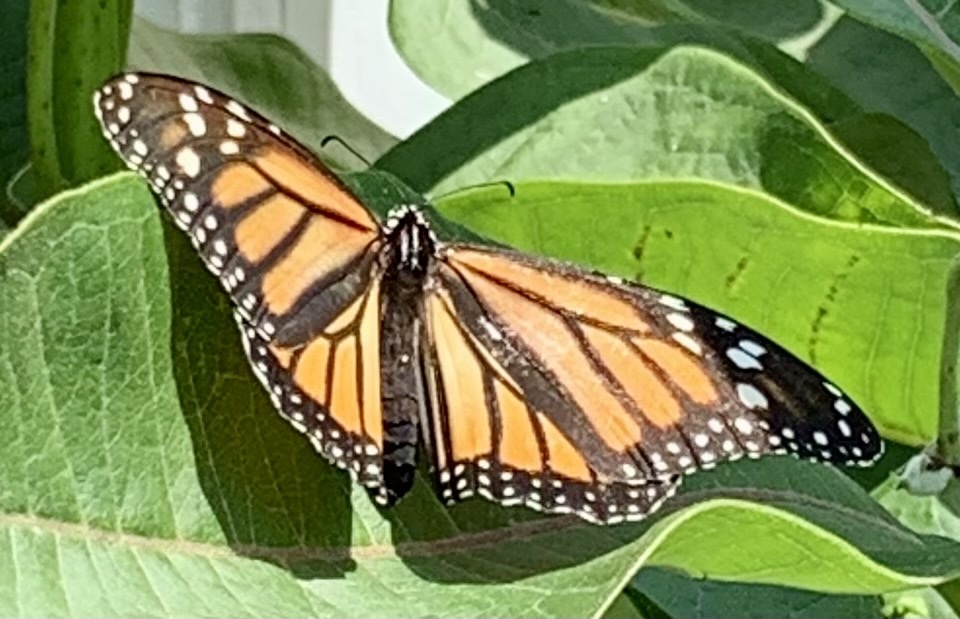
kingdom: Animalia
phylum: Arthropoda
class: Insecta
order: Lepidoptera
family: Nymphalidae
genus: Danaus
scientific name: Danaus plexippus
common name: Monarch
